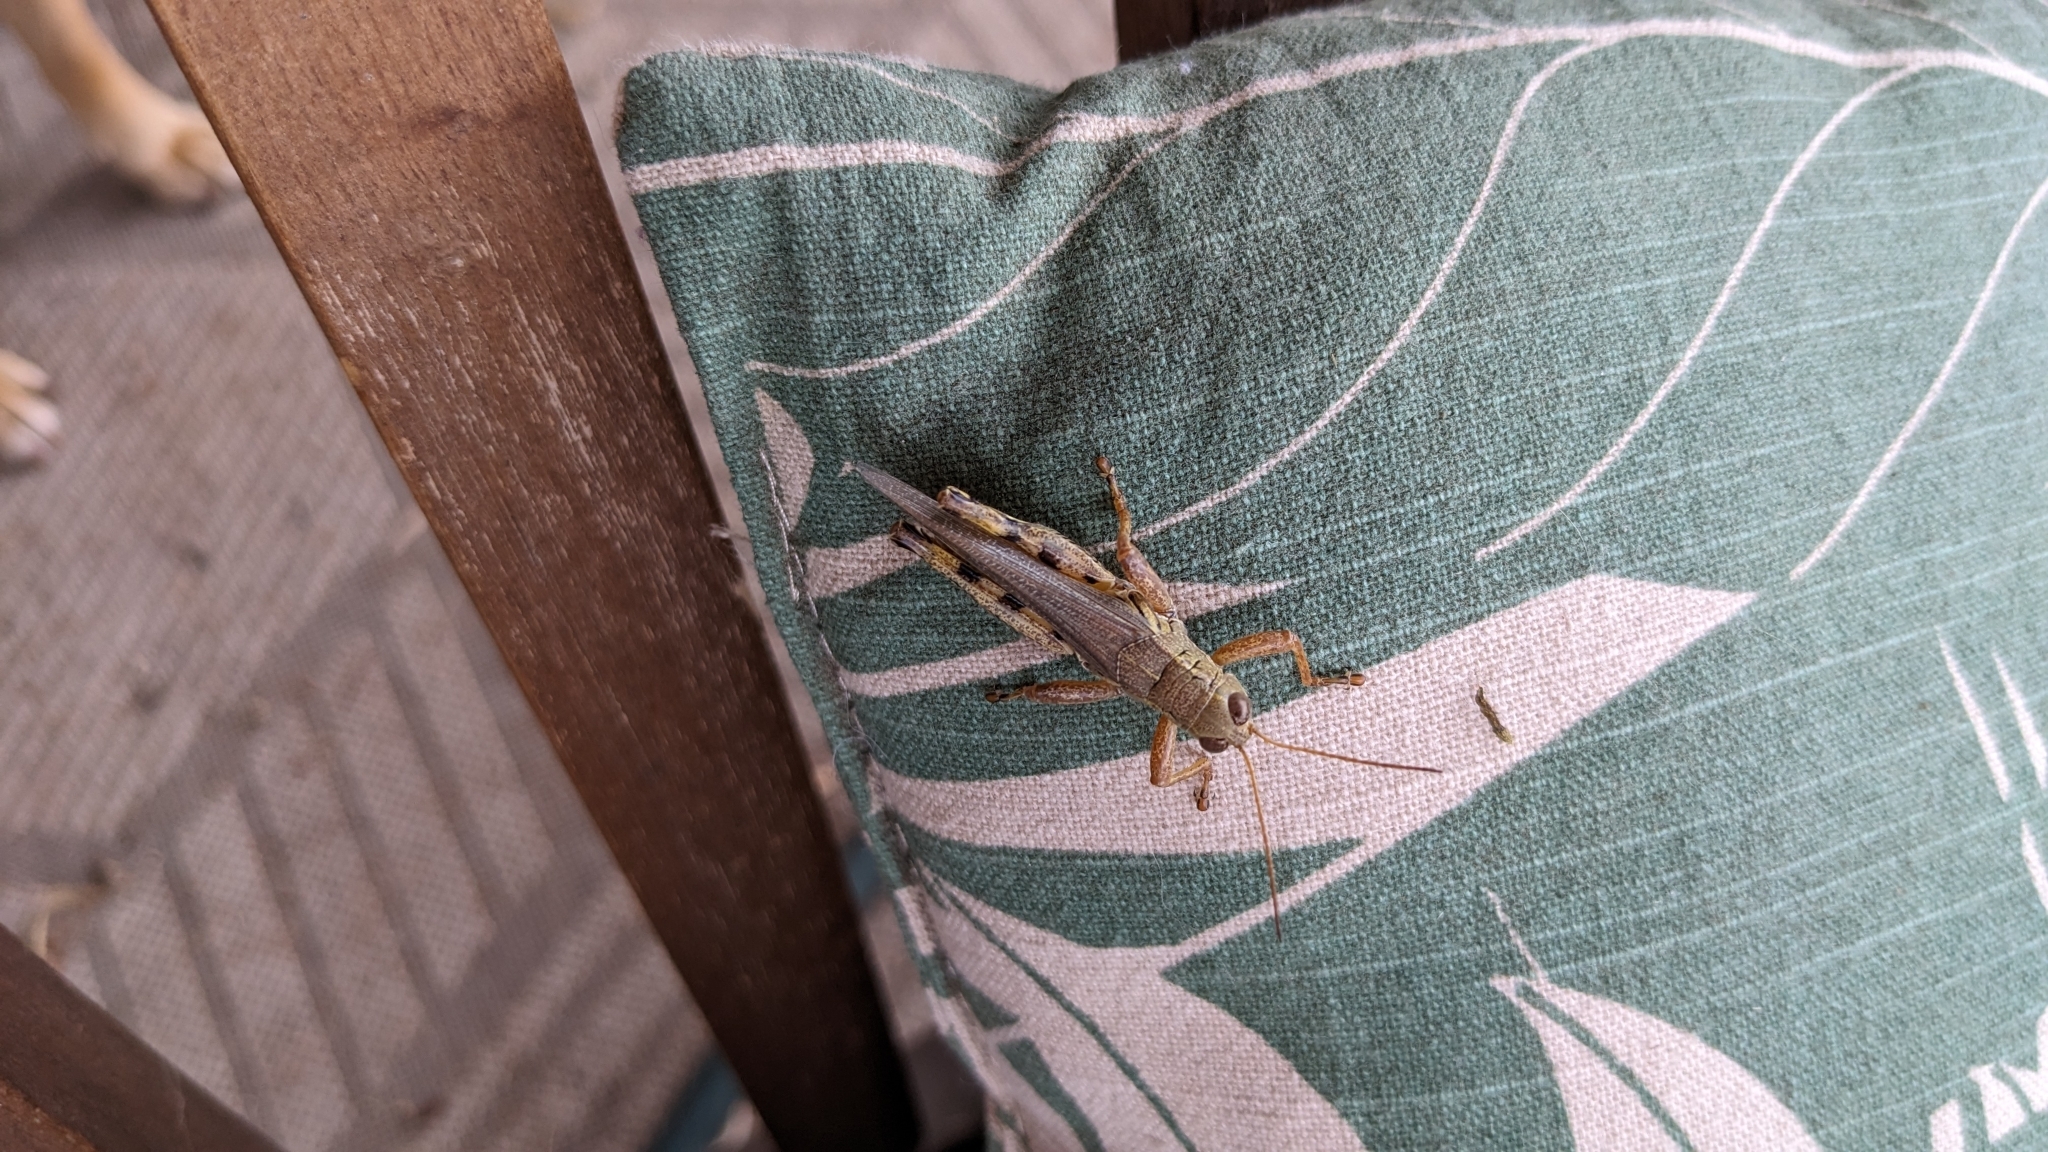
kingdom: Animalia
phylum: Arthropoda
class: Insecta
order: Orthoptera
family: Acrididae
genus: Melanoplus
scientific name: Melanoplus differentialis
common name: Differential grasshopper
